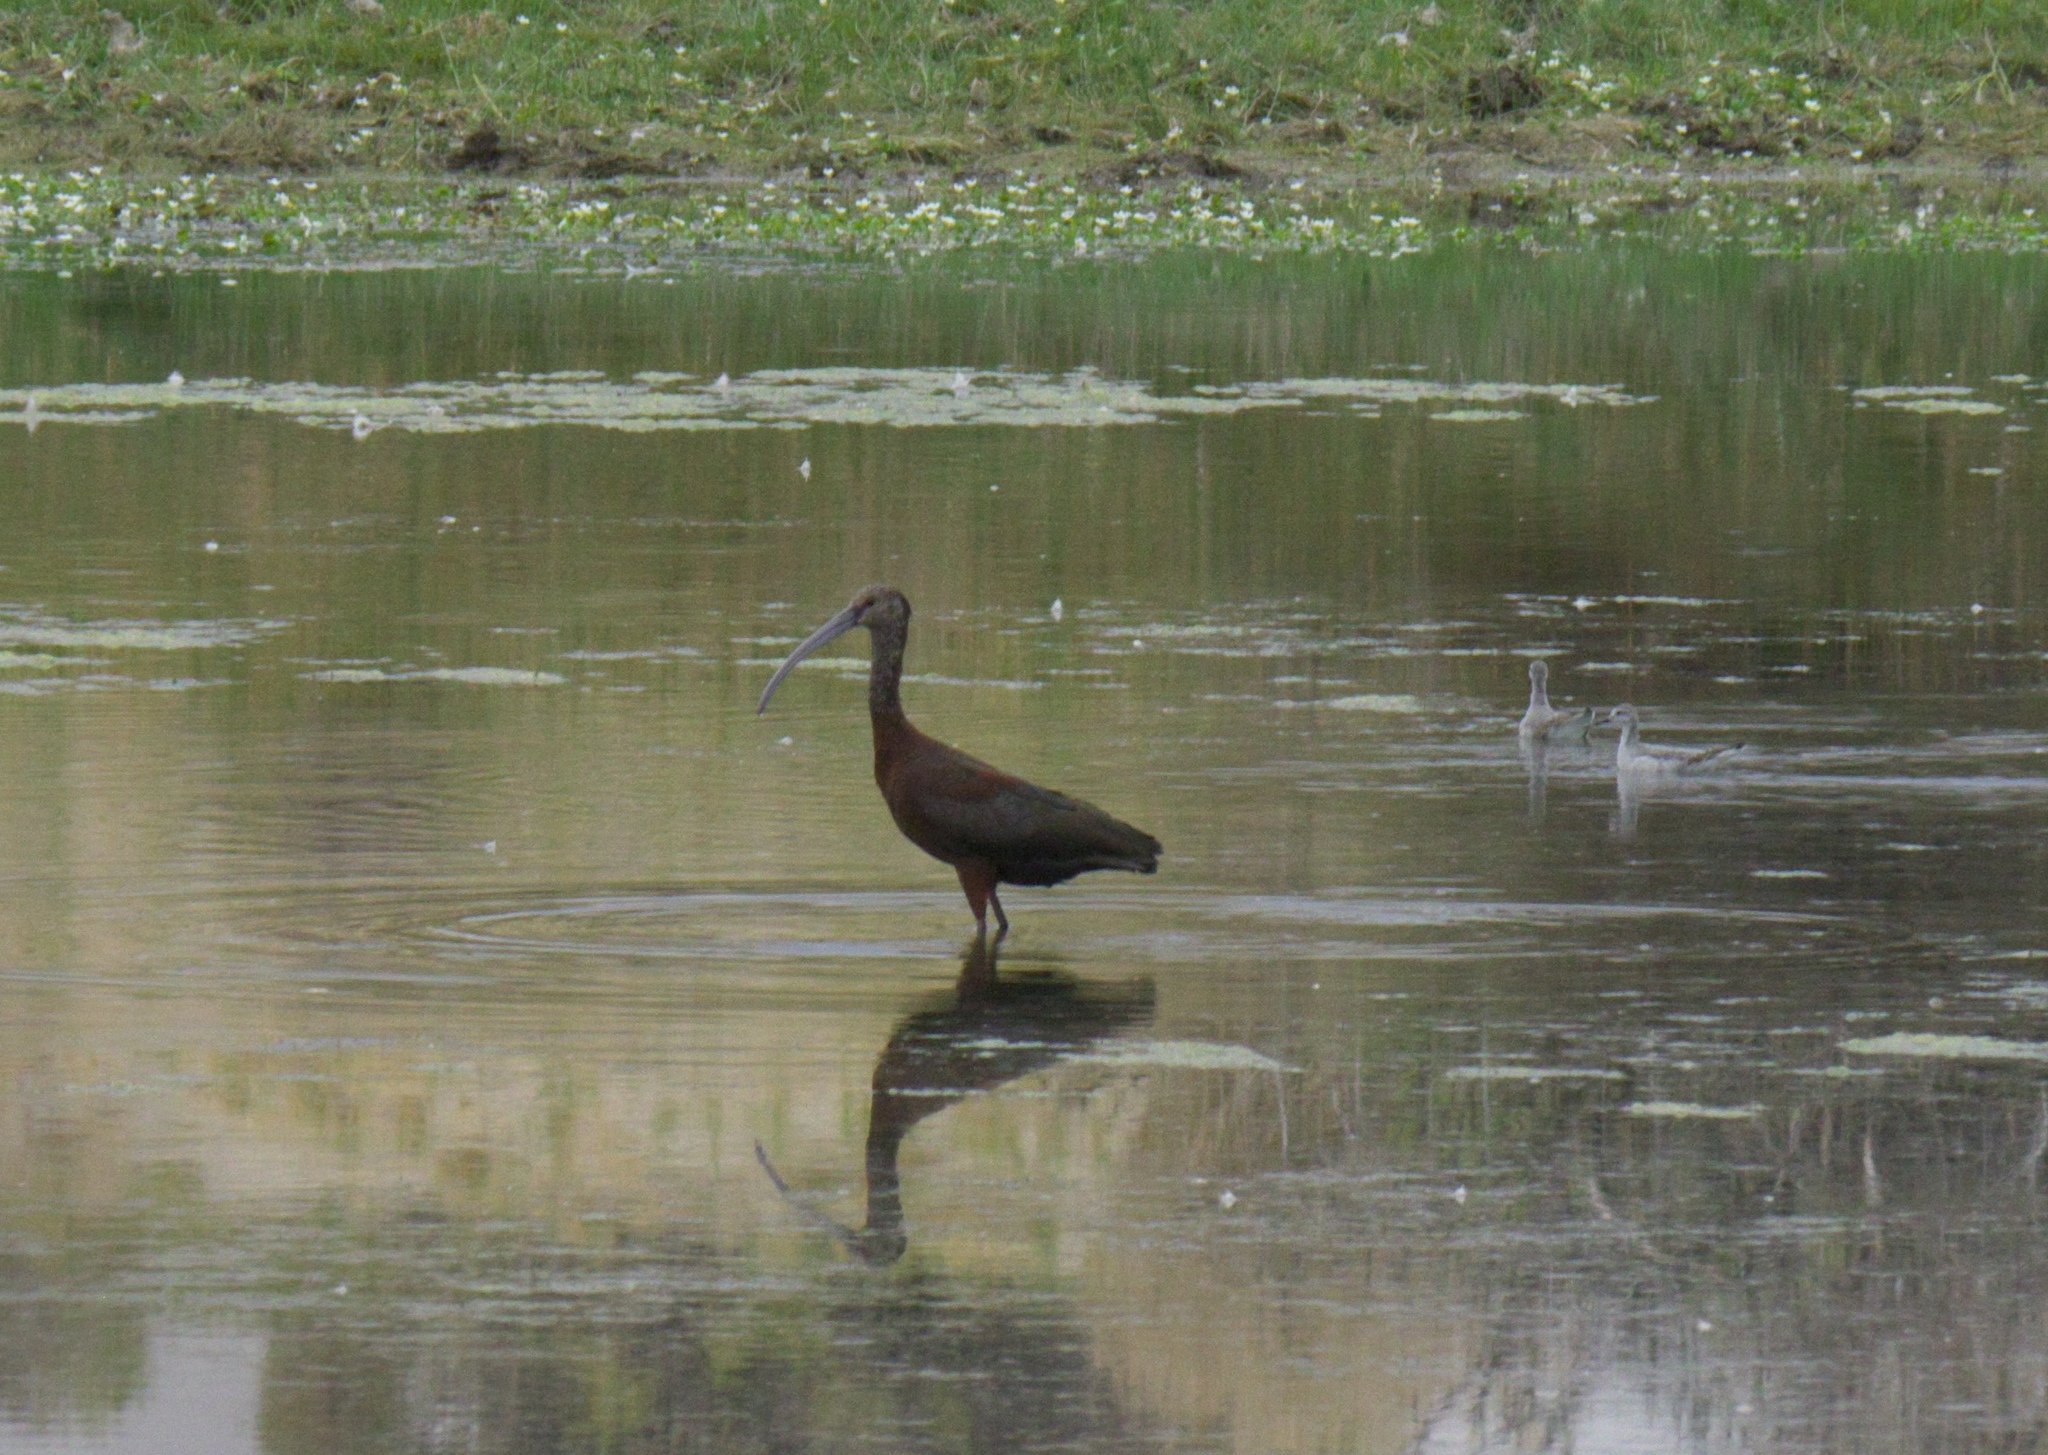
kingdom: Animalia
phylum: Chordata
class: Aves
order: Pelecaniformes
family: Threskiornithidae
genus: Plegadis
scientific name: Plegadis chihi
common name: White-faced ibis
